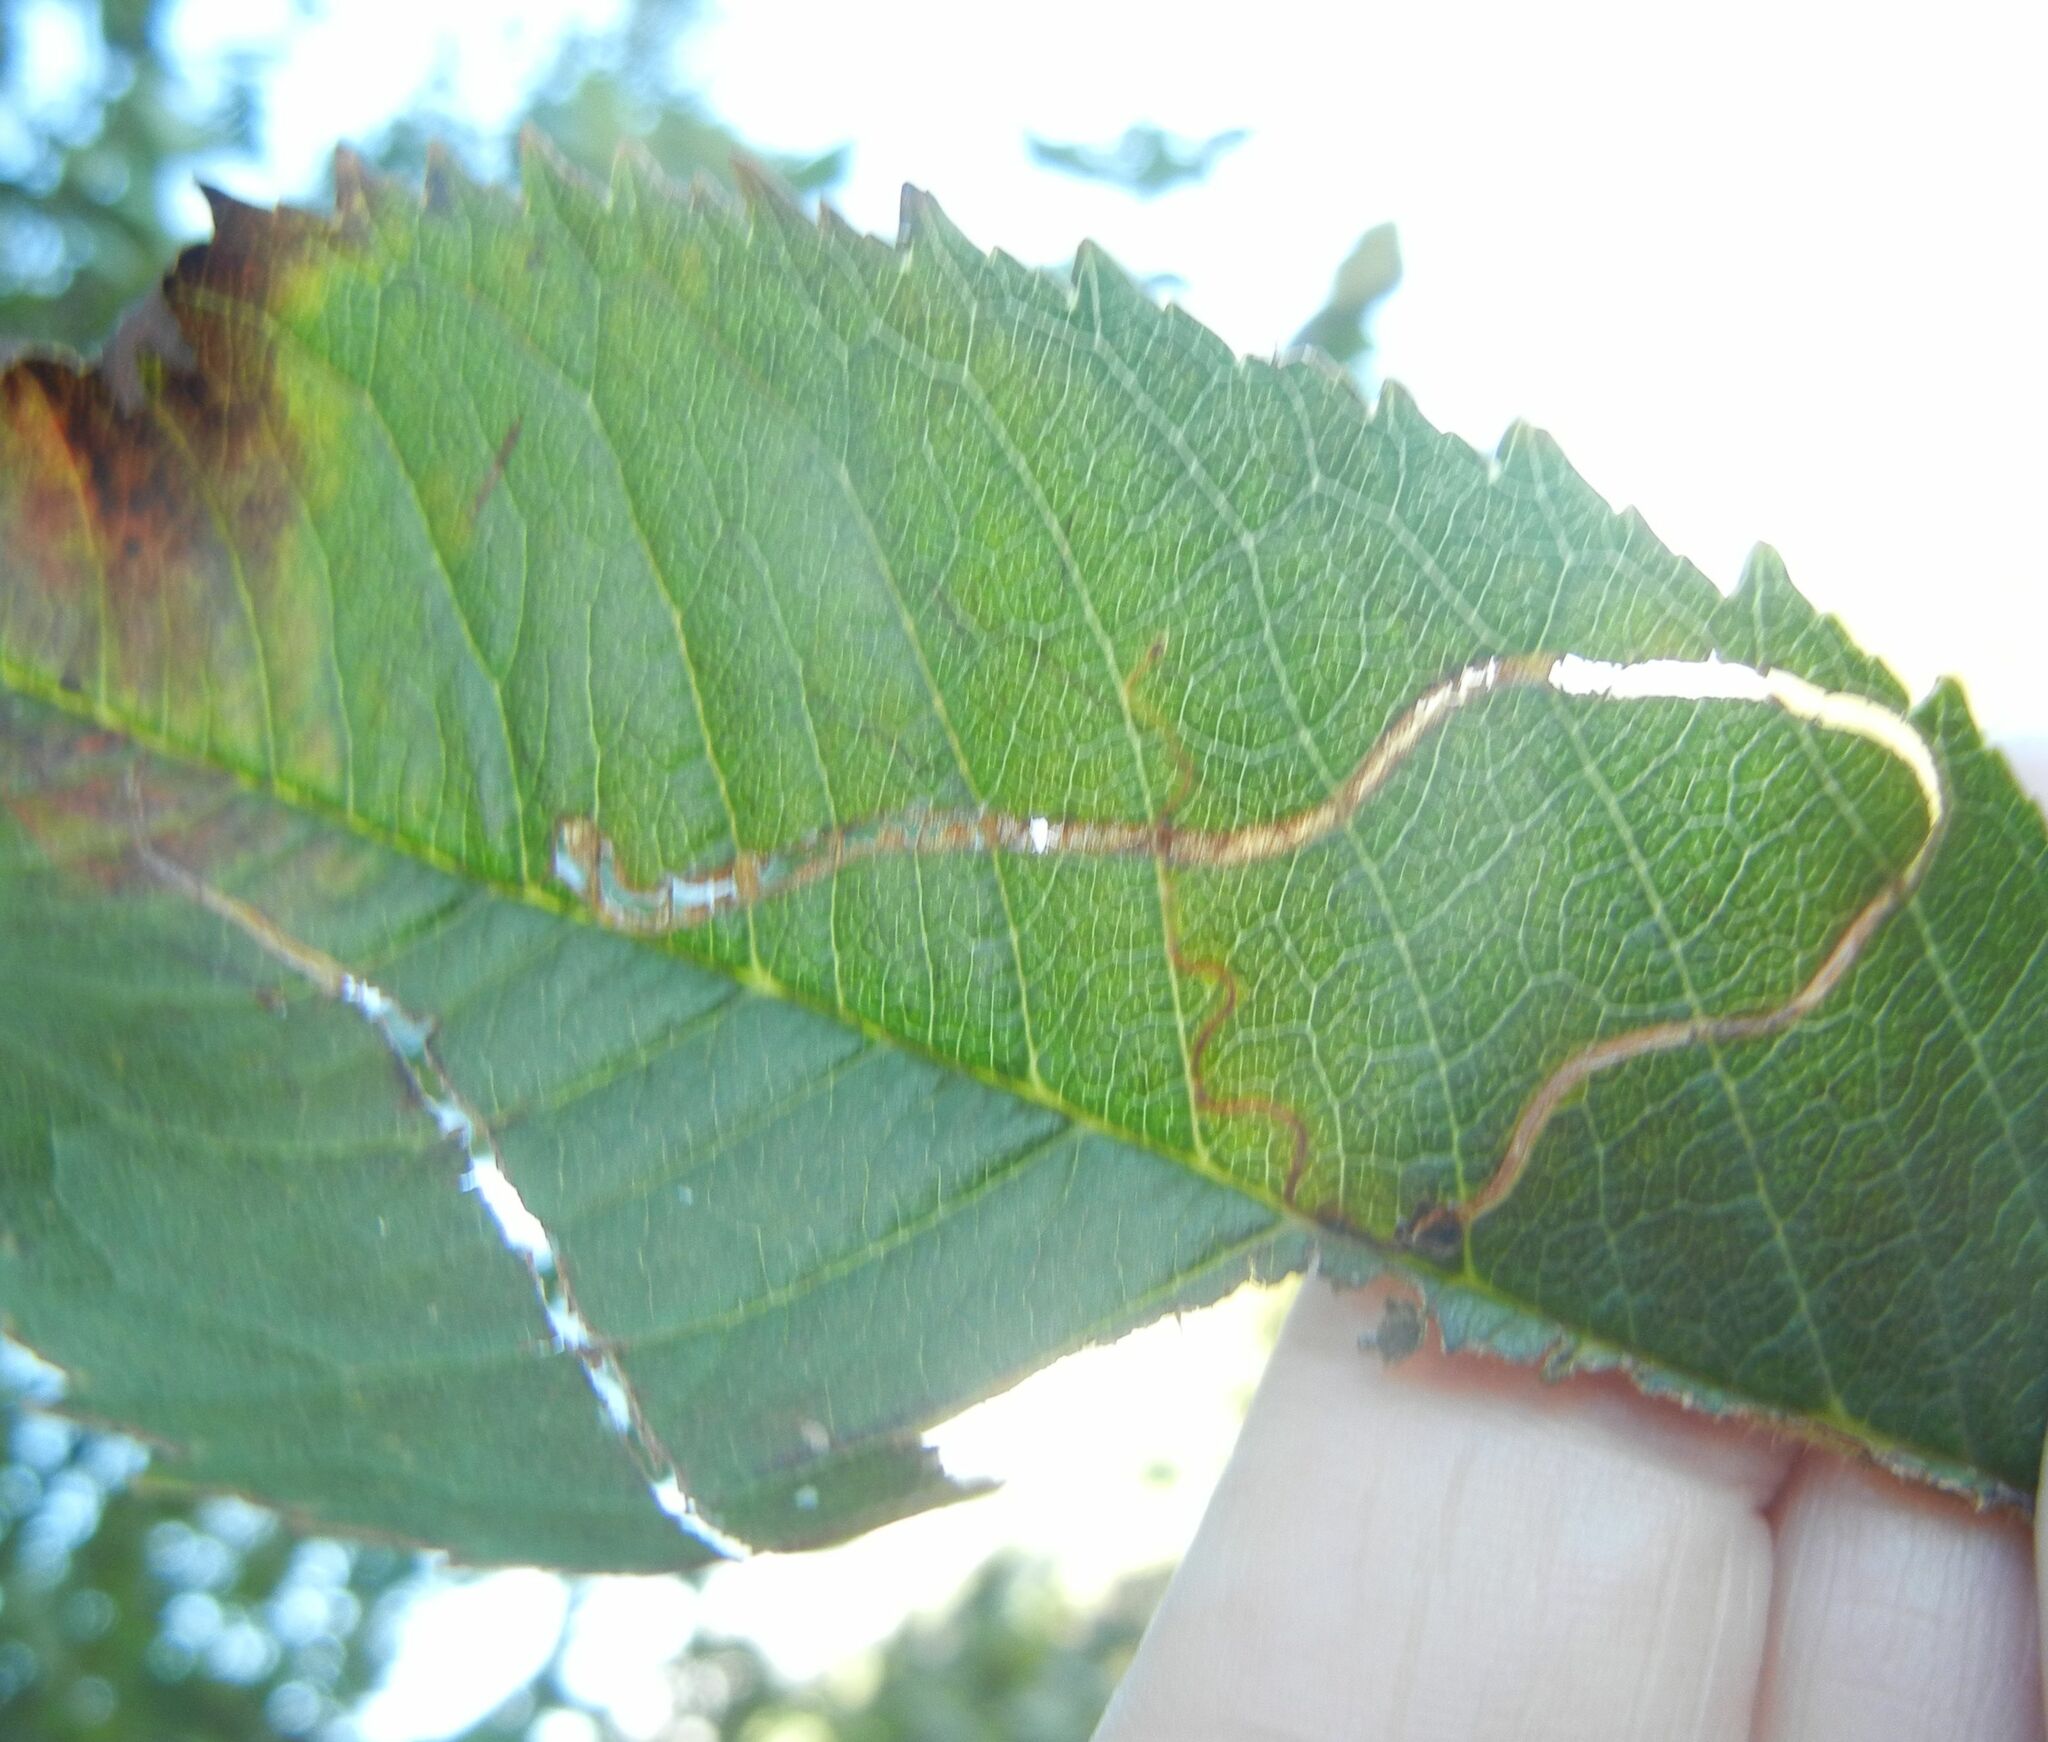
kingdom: Animalia
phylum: Arthropoda
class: Insecta
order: Lepidoptera
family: Lyonetiidae
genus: Lyonetia
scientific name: Lyonetia clerkella
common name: Apple leaf miner
